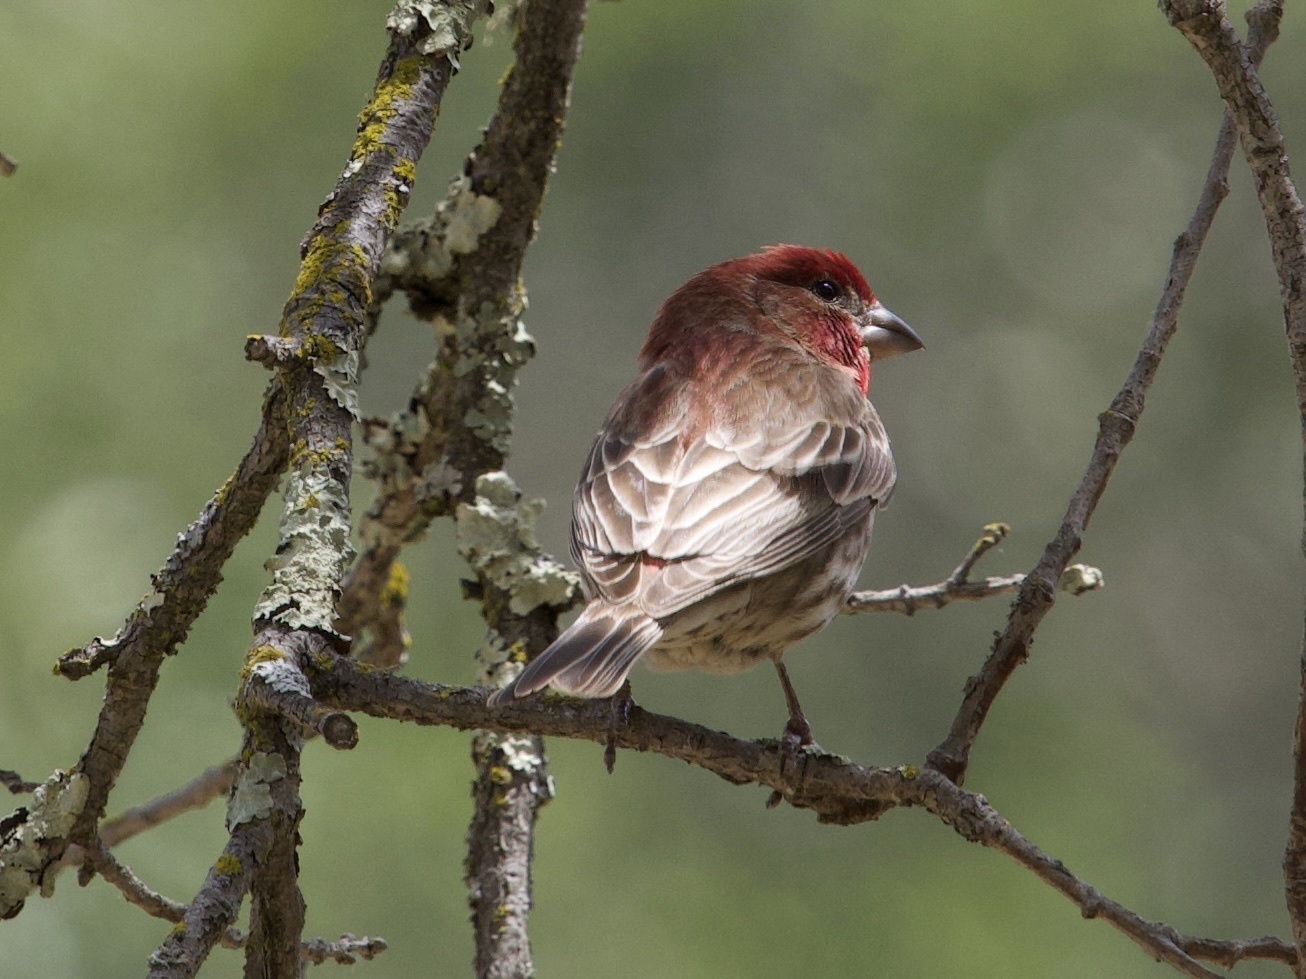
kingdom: Animalia
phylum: Chordata
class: Aves
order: Passeriformes
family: Fringillidae
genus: Haemorhous
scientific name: Haemorhous mexicanus
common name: House finch
